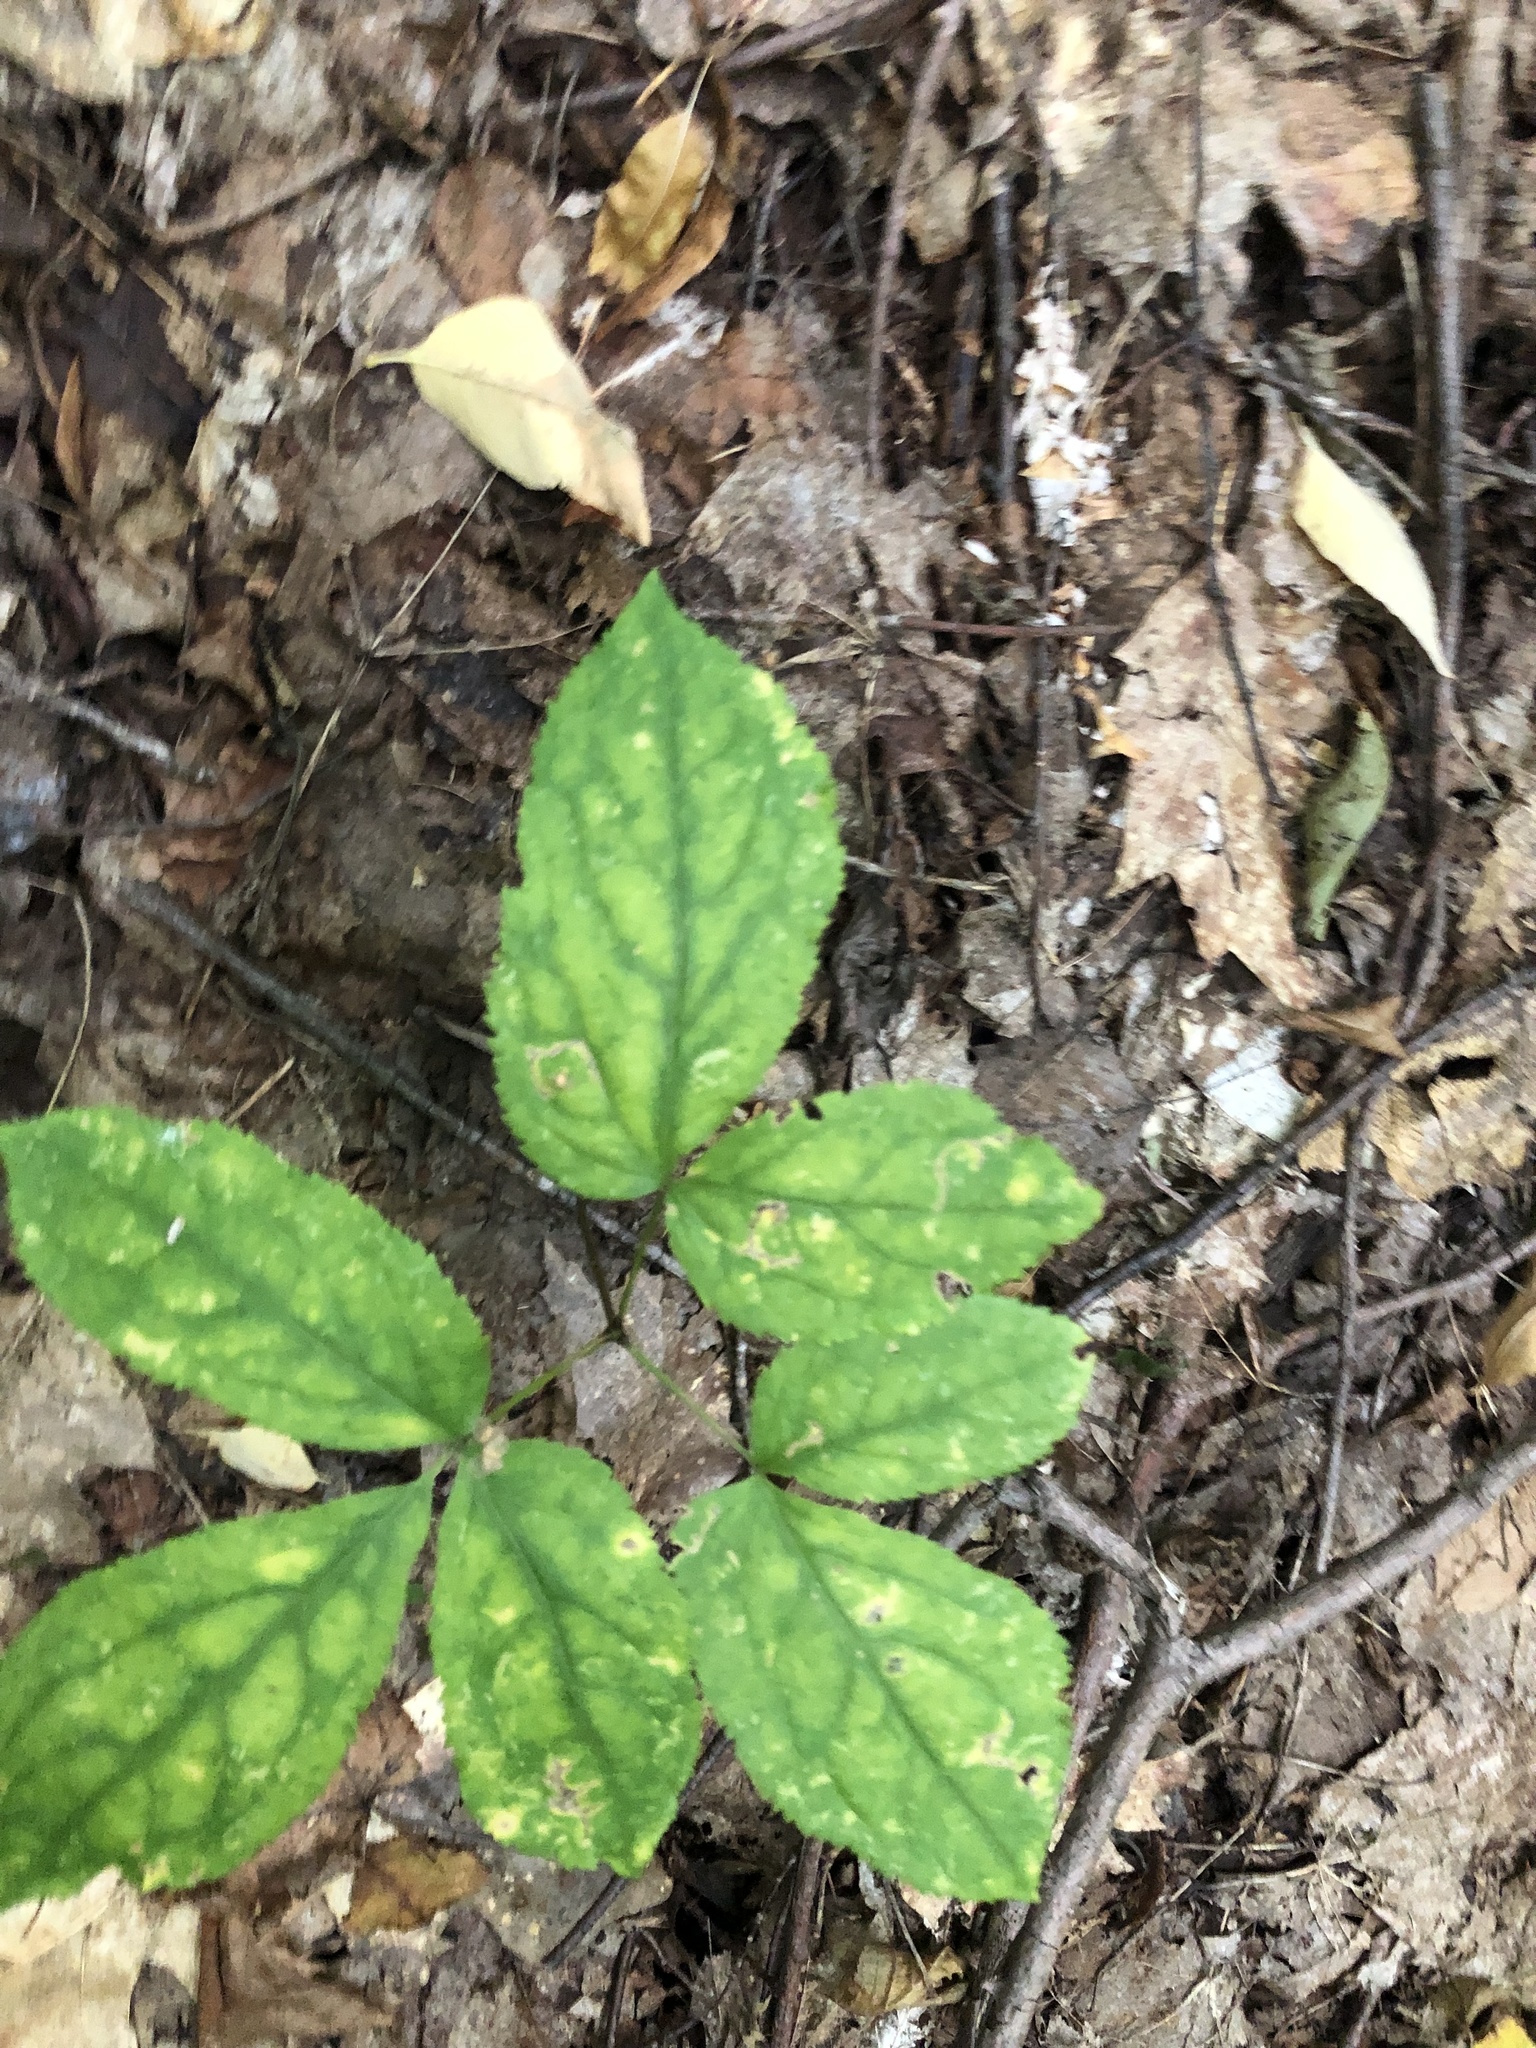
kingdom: Plantae
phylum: Tracheophyta
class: Magnoliopsida
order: Apiales
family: Araliaceae
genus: Aralia
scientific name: Aralia nudicaulis
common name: Wild sarsaparilla
